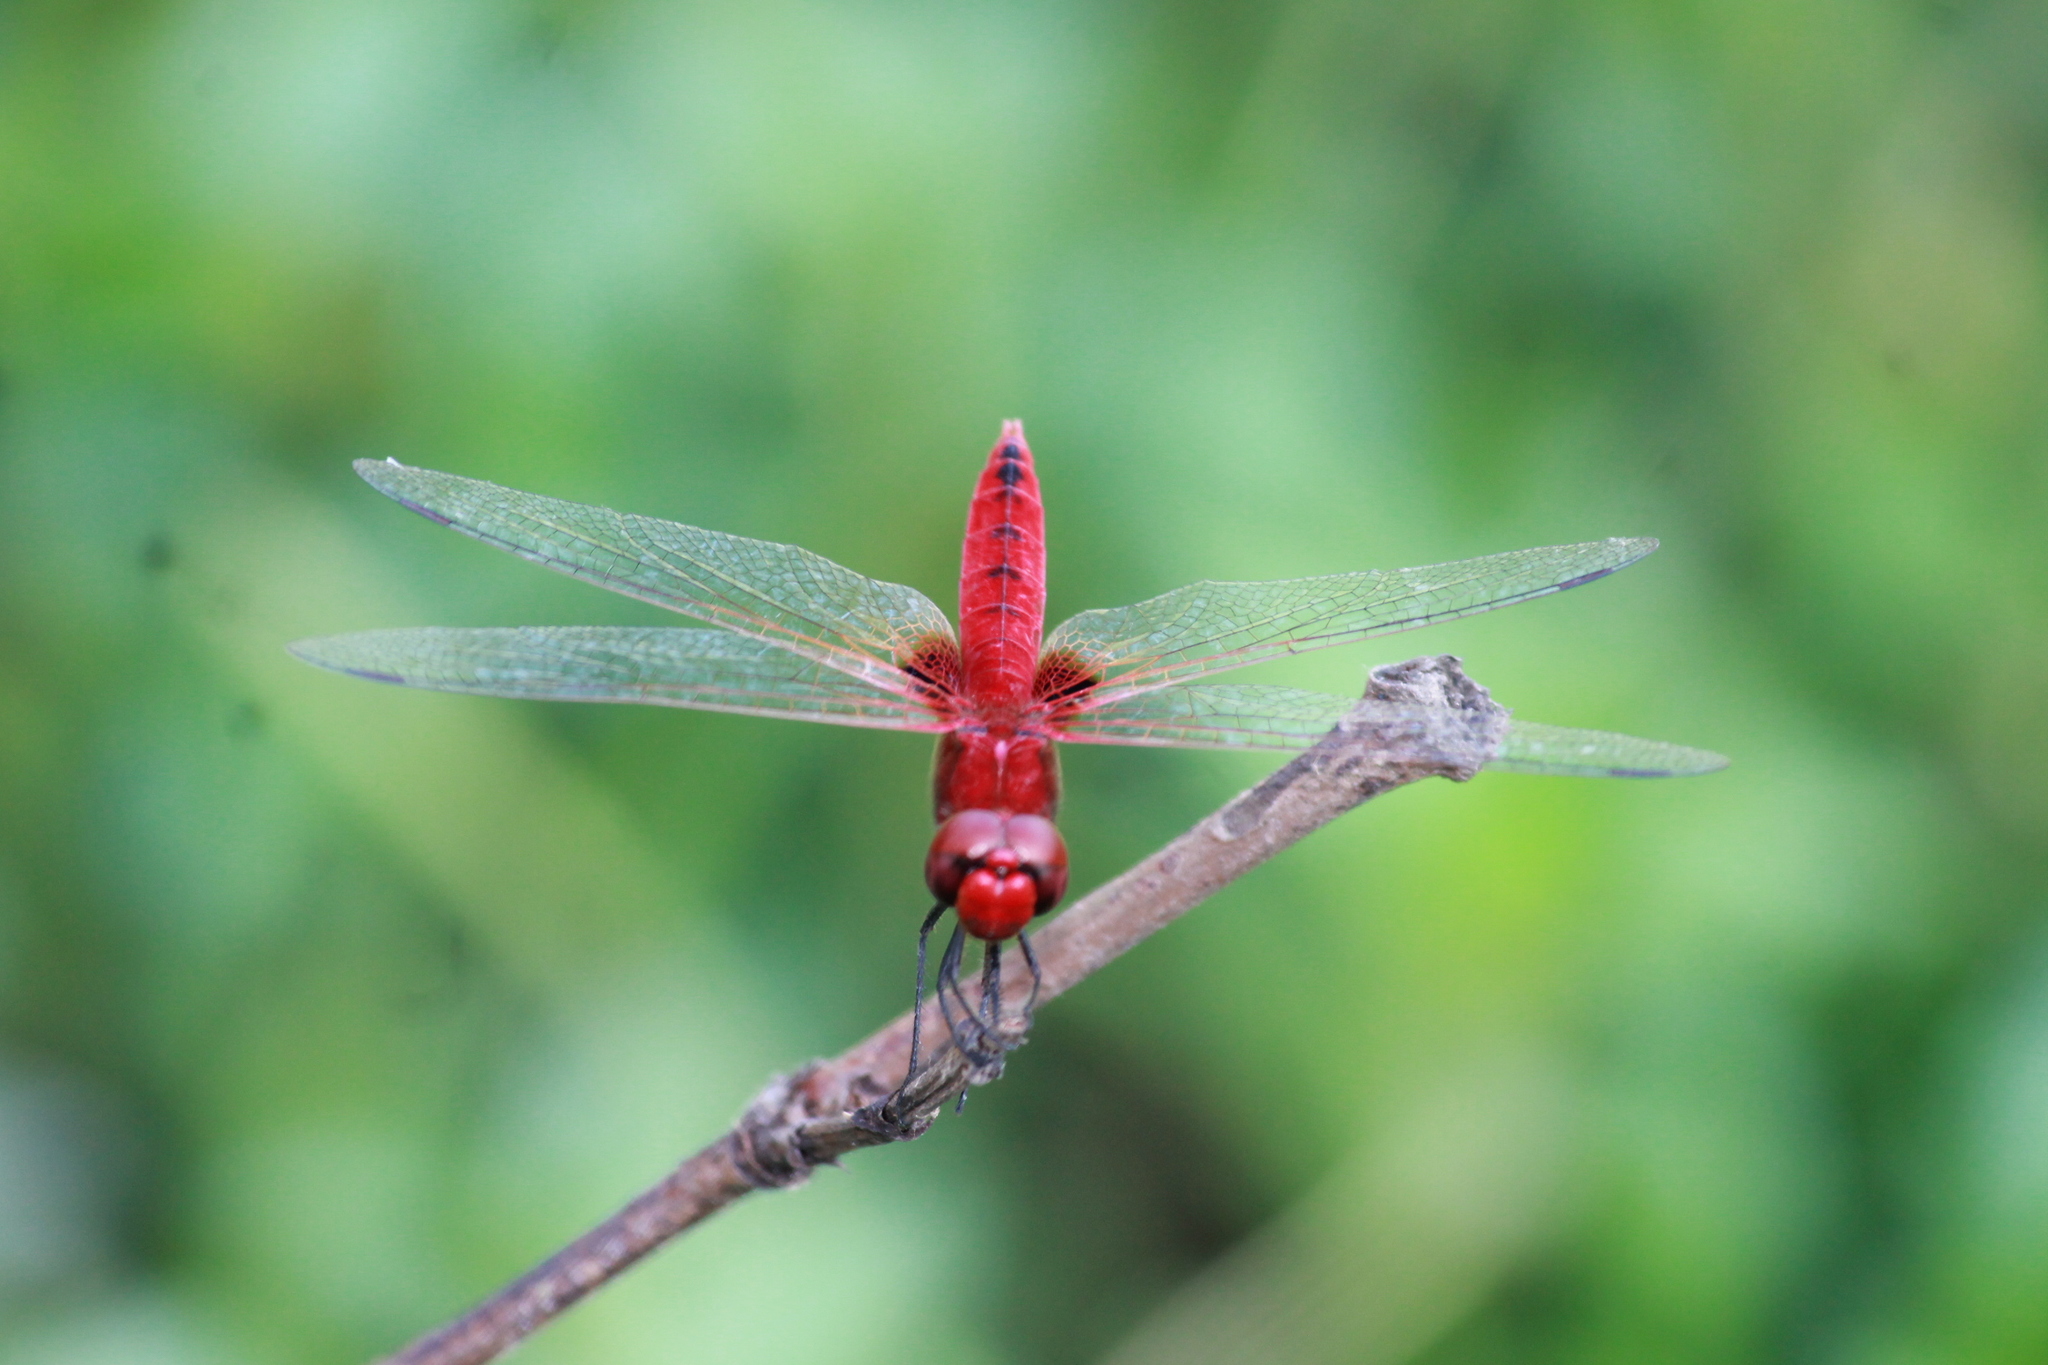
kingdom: Animalia
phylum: Arthropoda
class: Insecta
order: Odonata
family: Libellulidae
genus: Urothemis
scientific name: Urothemis signata
